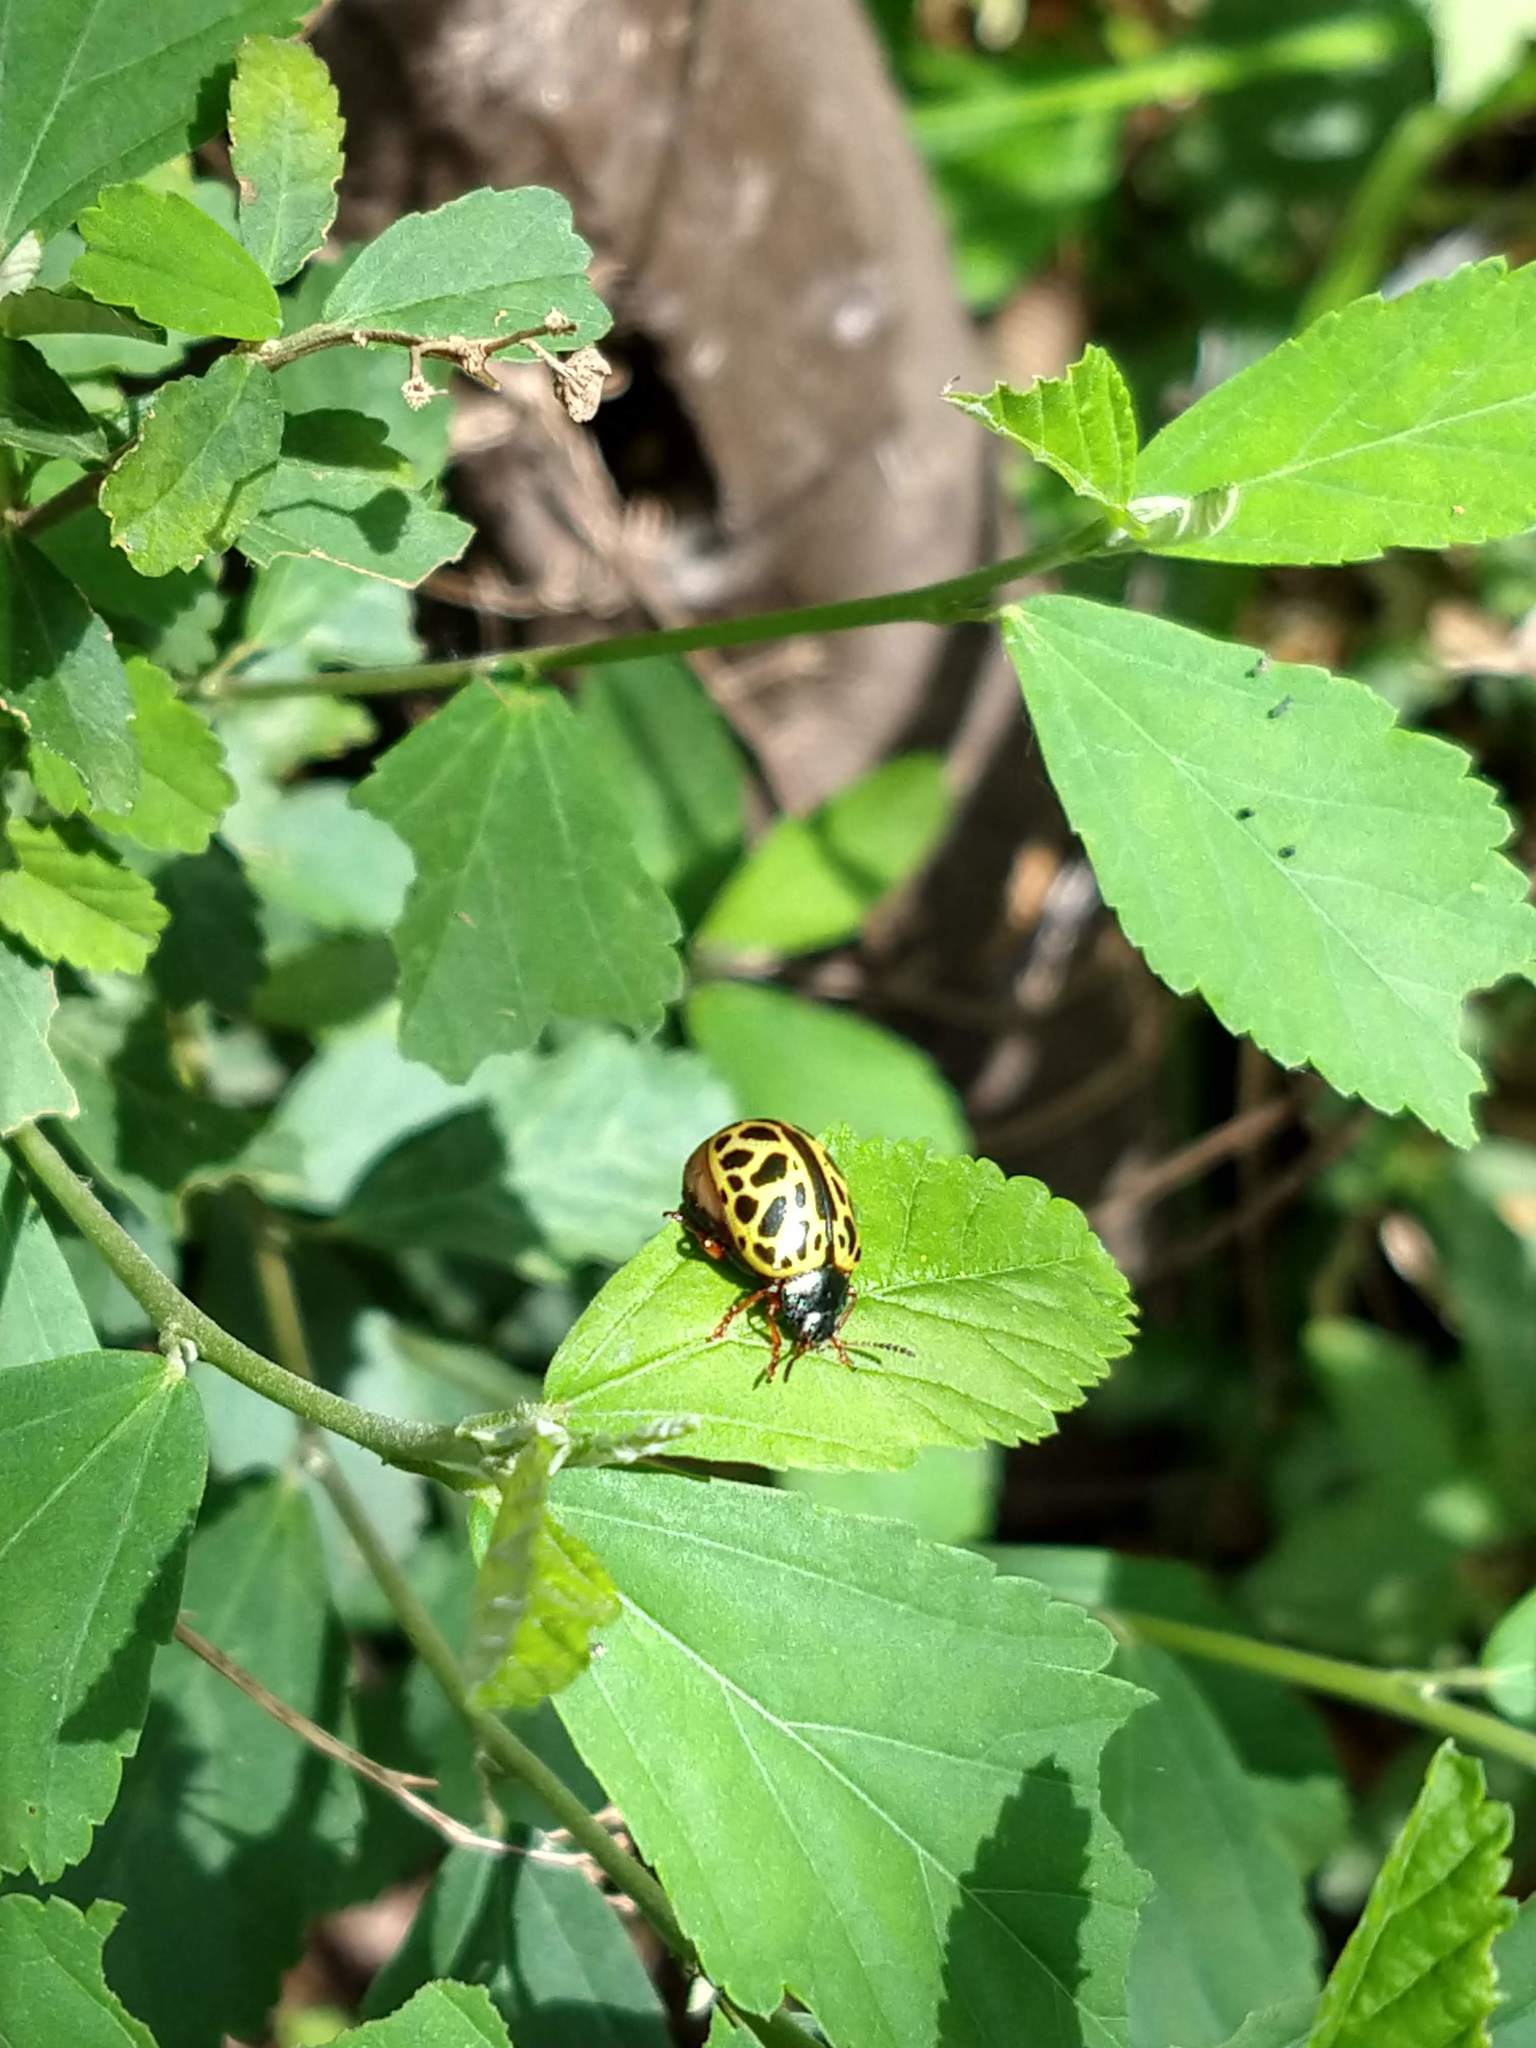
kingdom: Animalia
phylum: Arthropoda
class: Insecta
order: Coleoptera
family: Chrysomelidae
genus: Calligrapha
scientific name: Calligrapha polyspila
